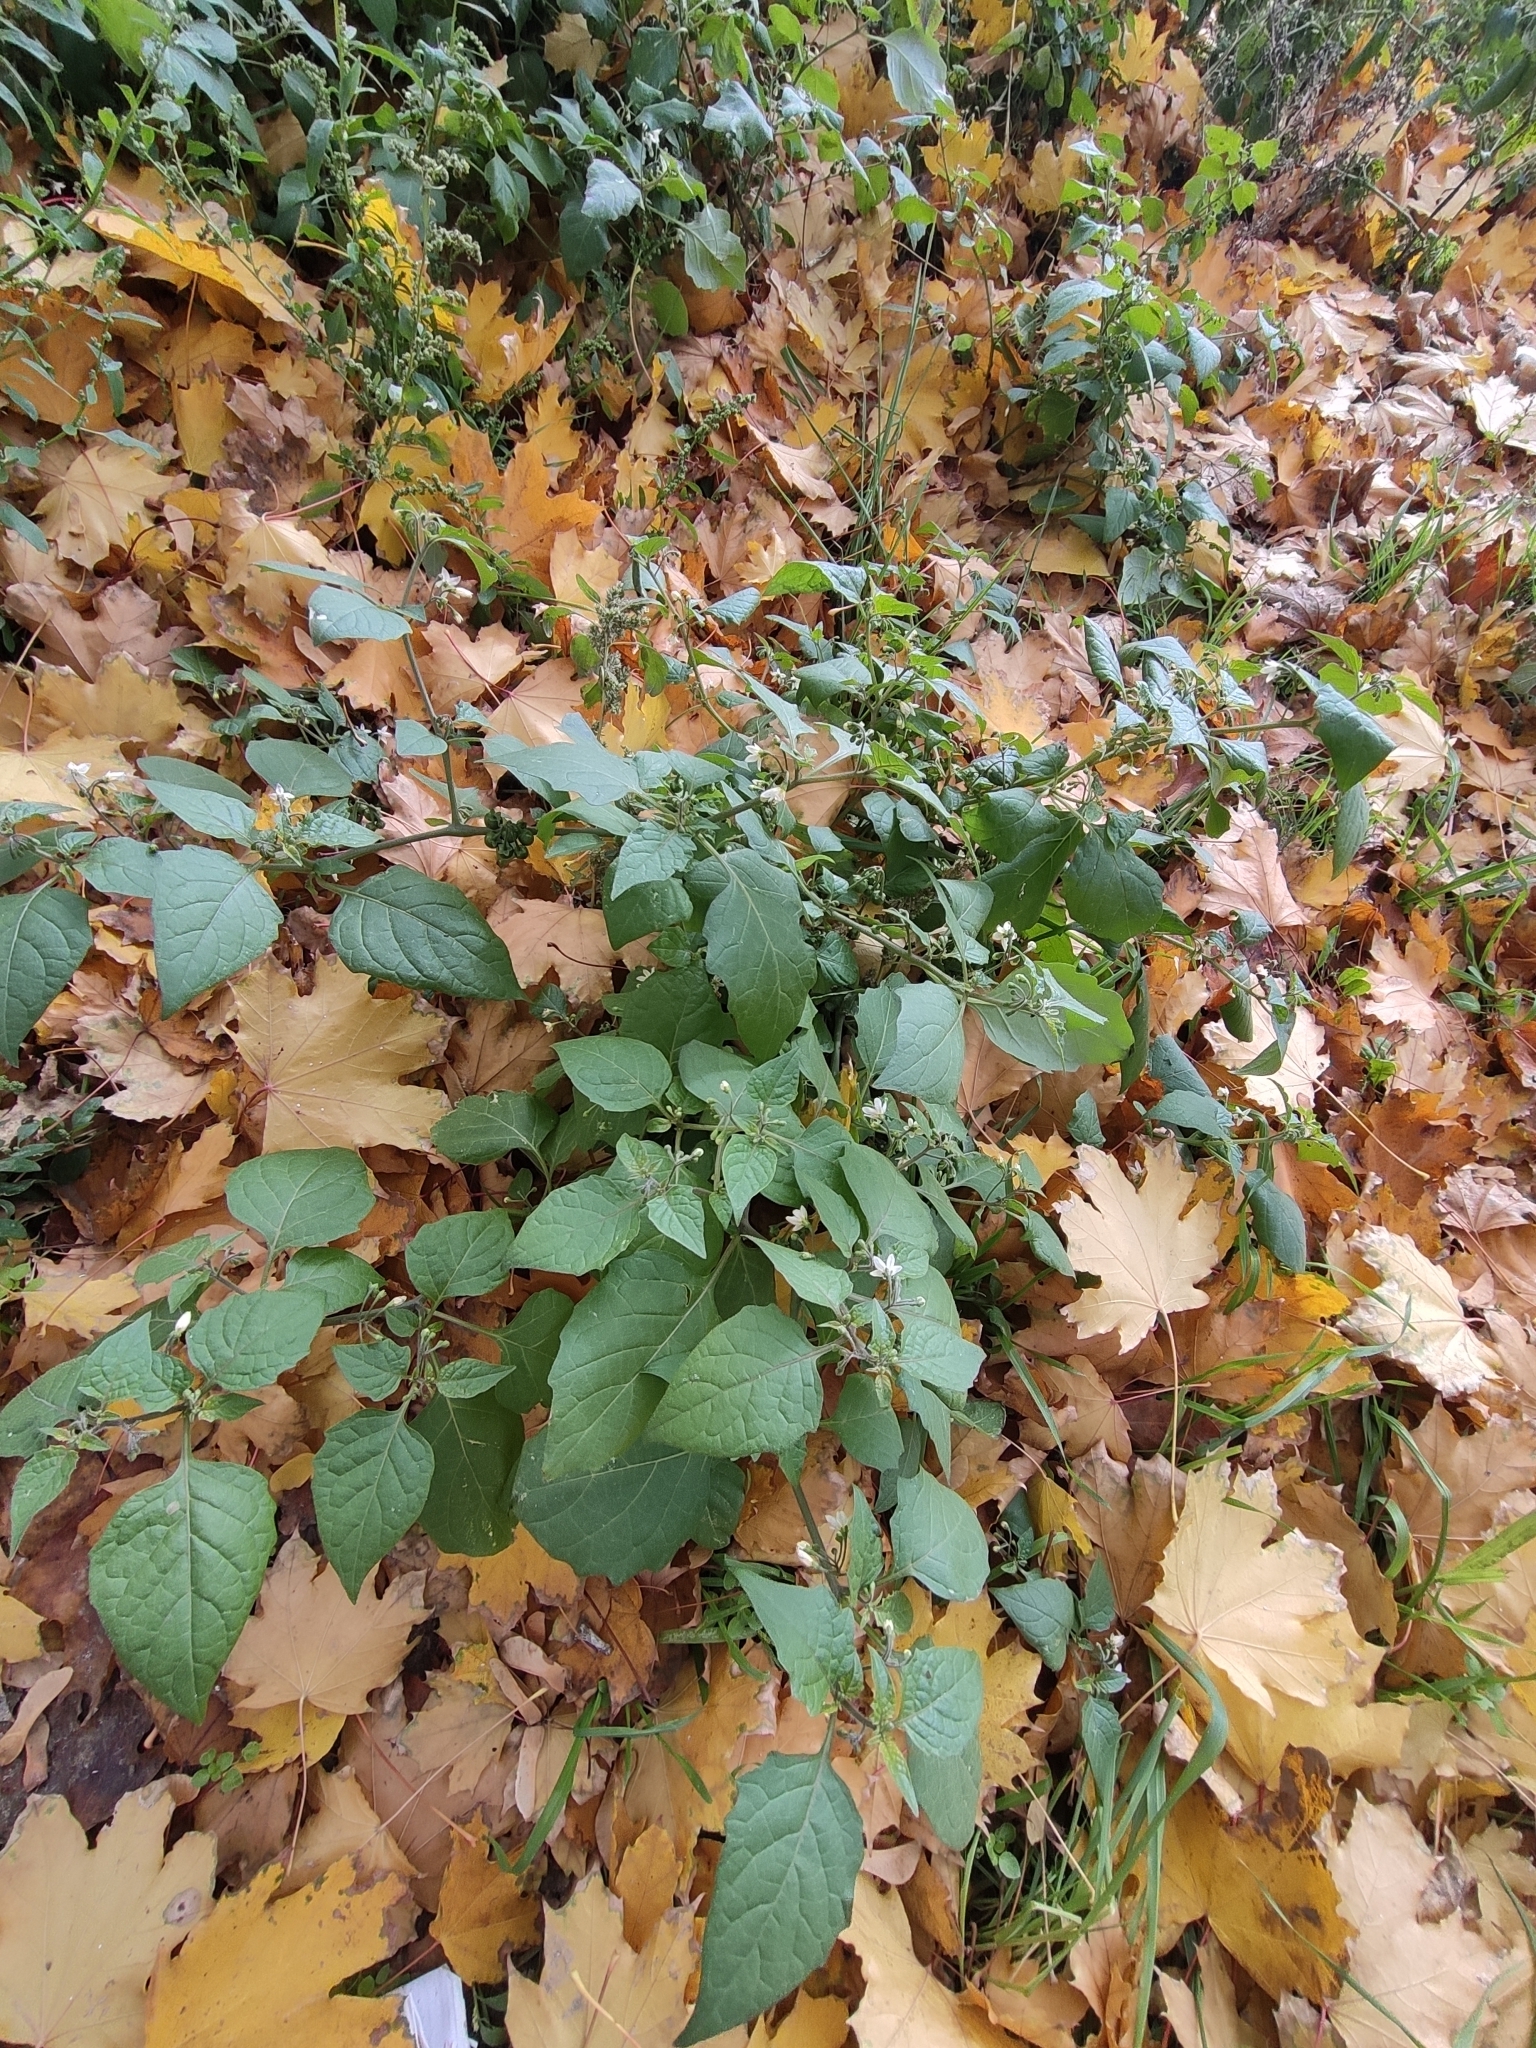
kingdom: Plantae
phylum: Tracheophyta
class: Magnoliopsida
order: Solanales
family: Solanaceae
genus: Solanum
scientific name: Solanum nigrum
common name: Black nightshade
